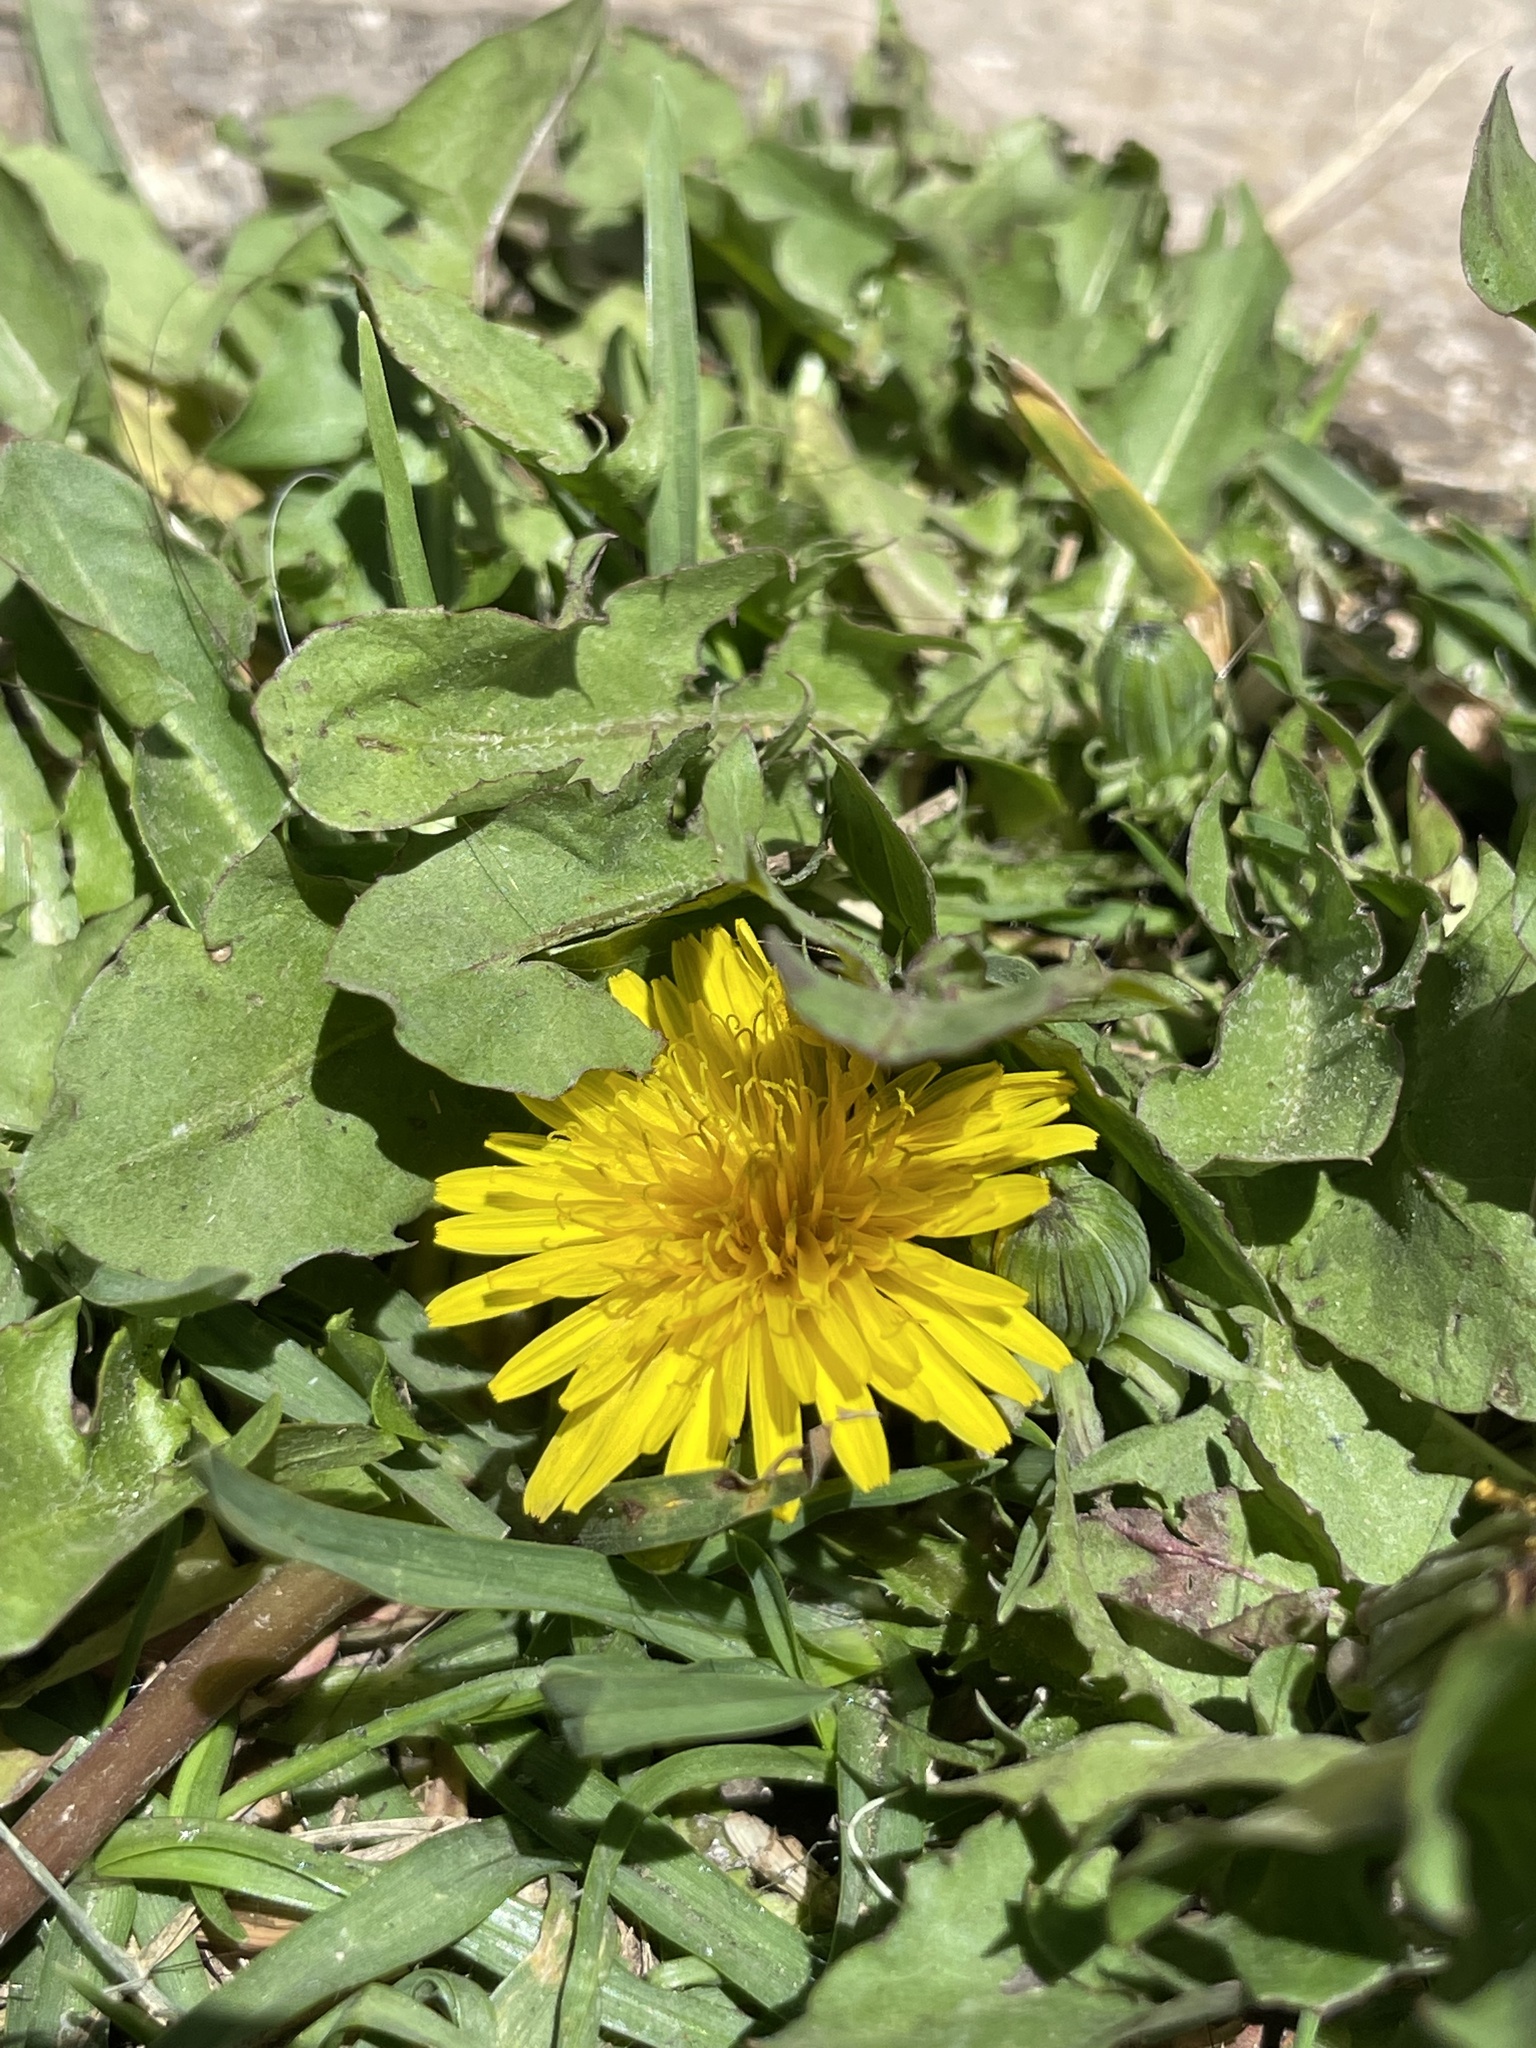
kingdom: Plantae
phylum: Tracheophyta
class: Magnoliopsida
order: Asterales
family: Asteraceae
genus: Taraxacum
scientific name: Taraxacum officinale
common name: Common dandelion
